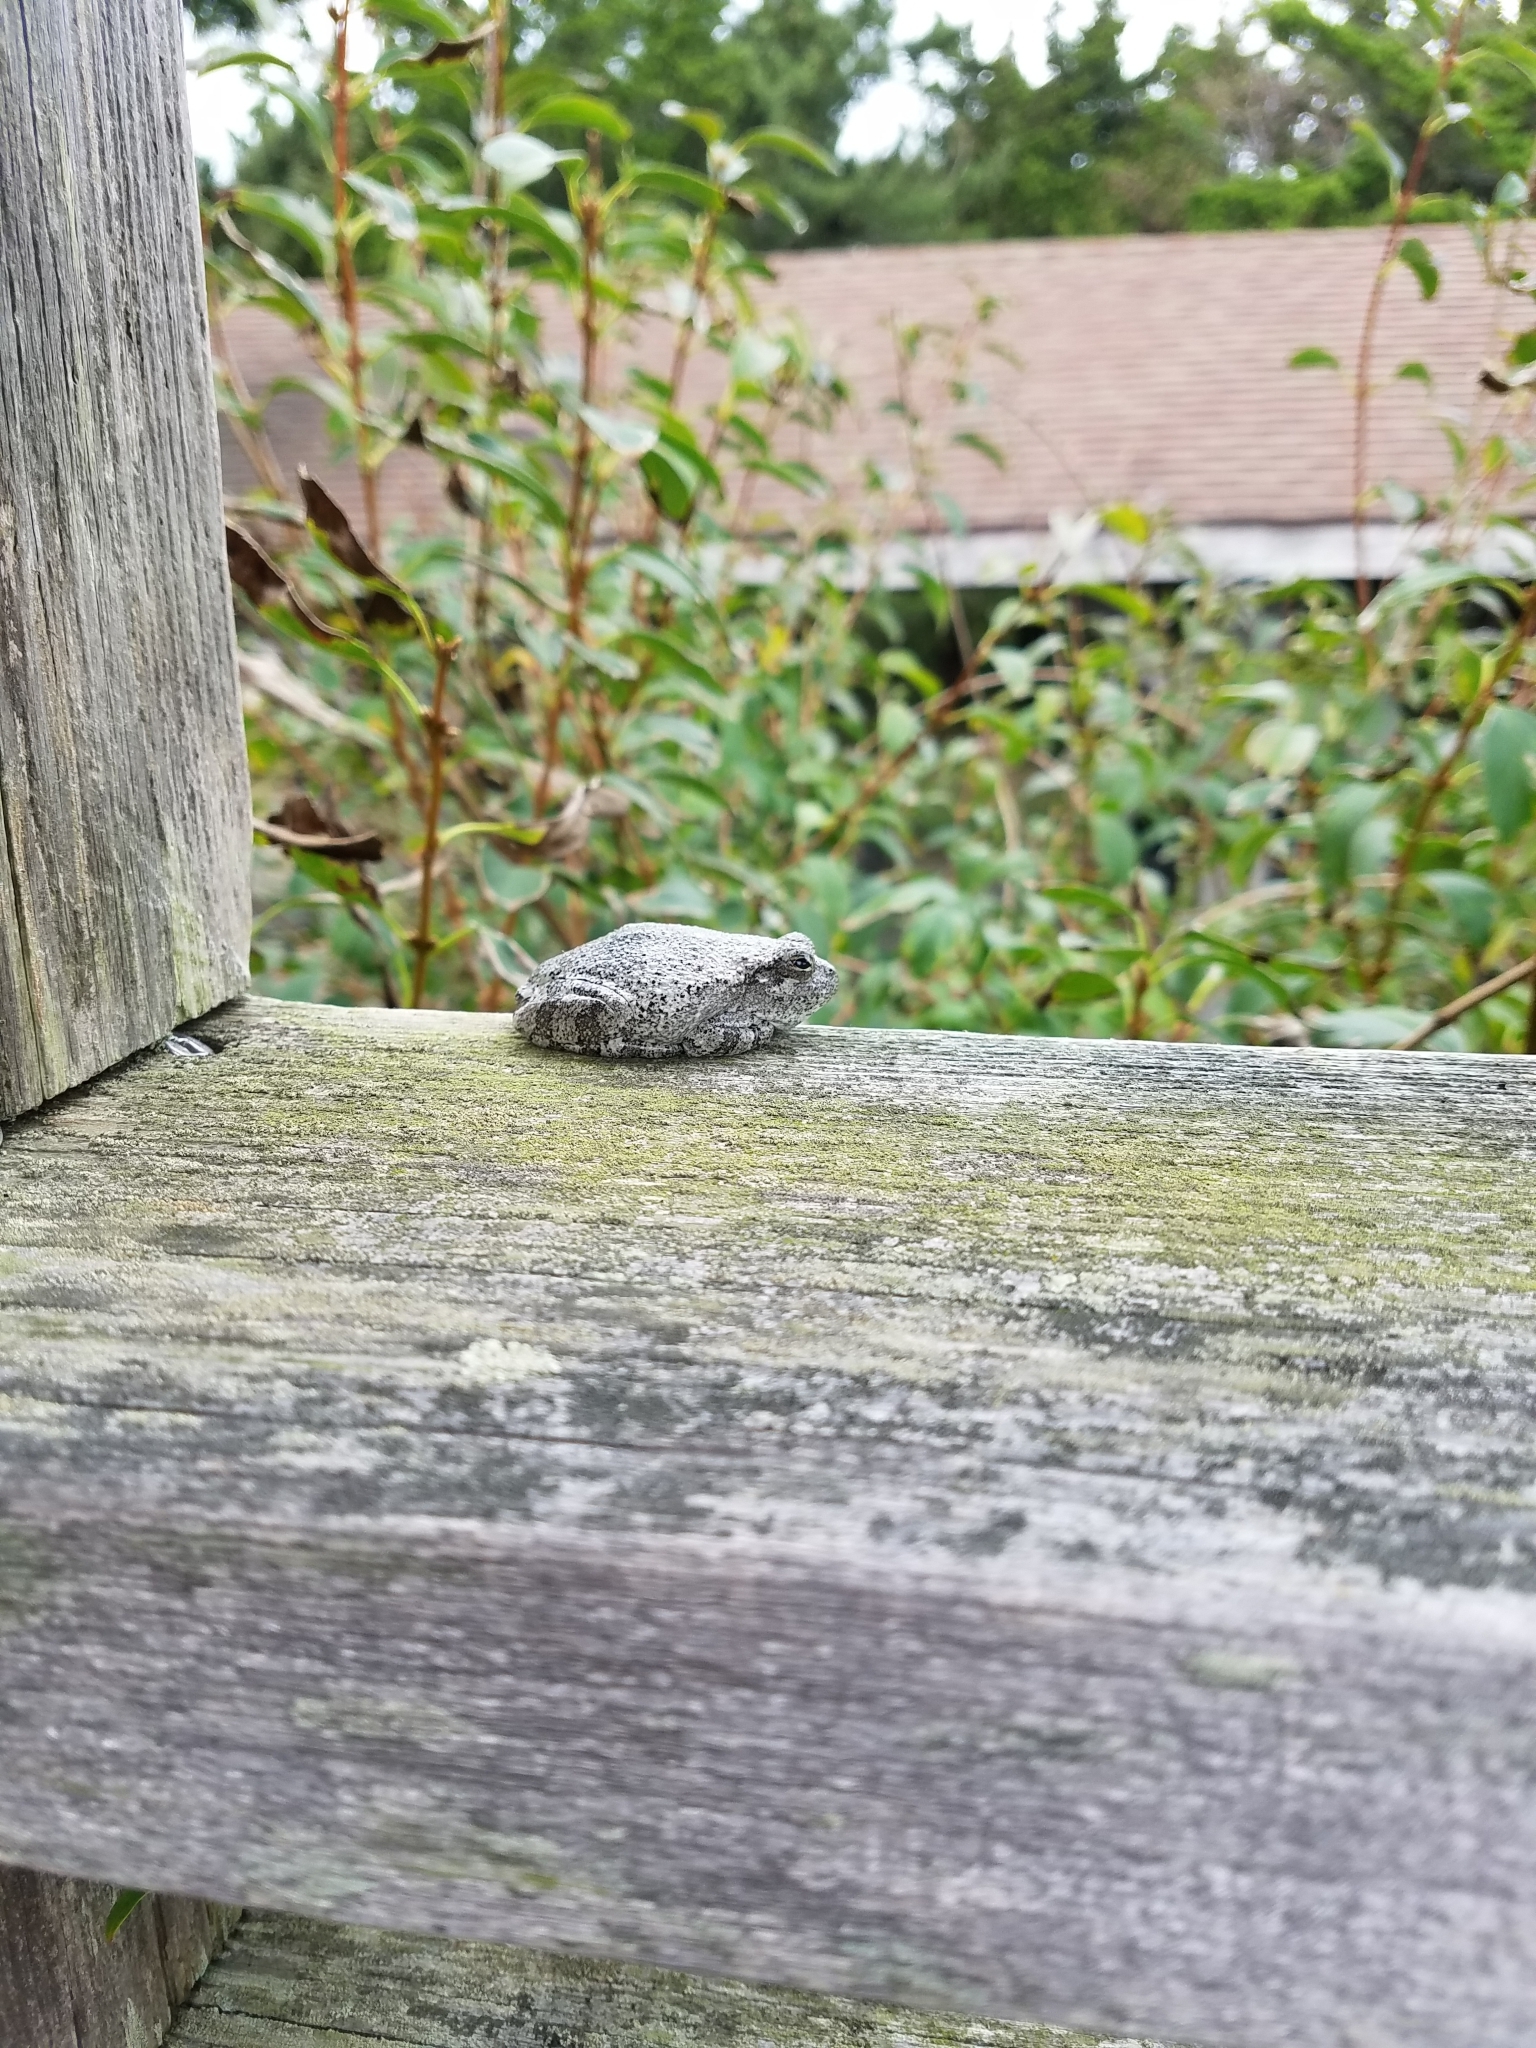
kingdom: Animalia
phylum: Chordata
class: Amphibia
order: Anura
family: Hylidae
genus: Hyla
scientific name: Hyla
